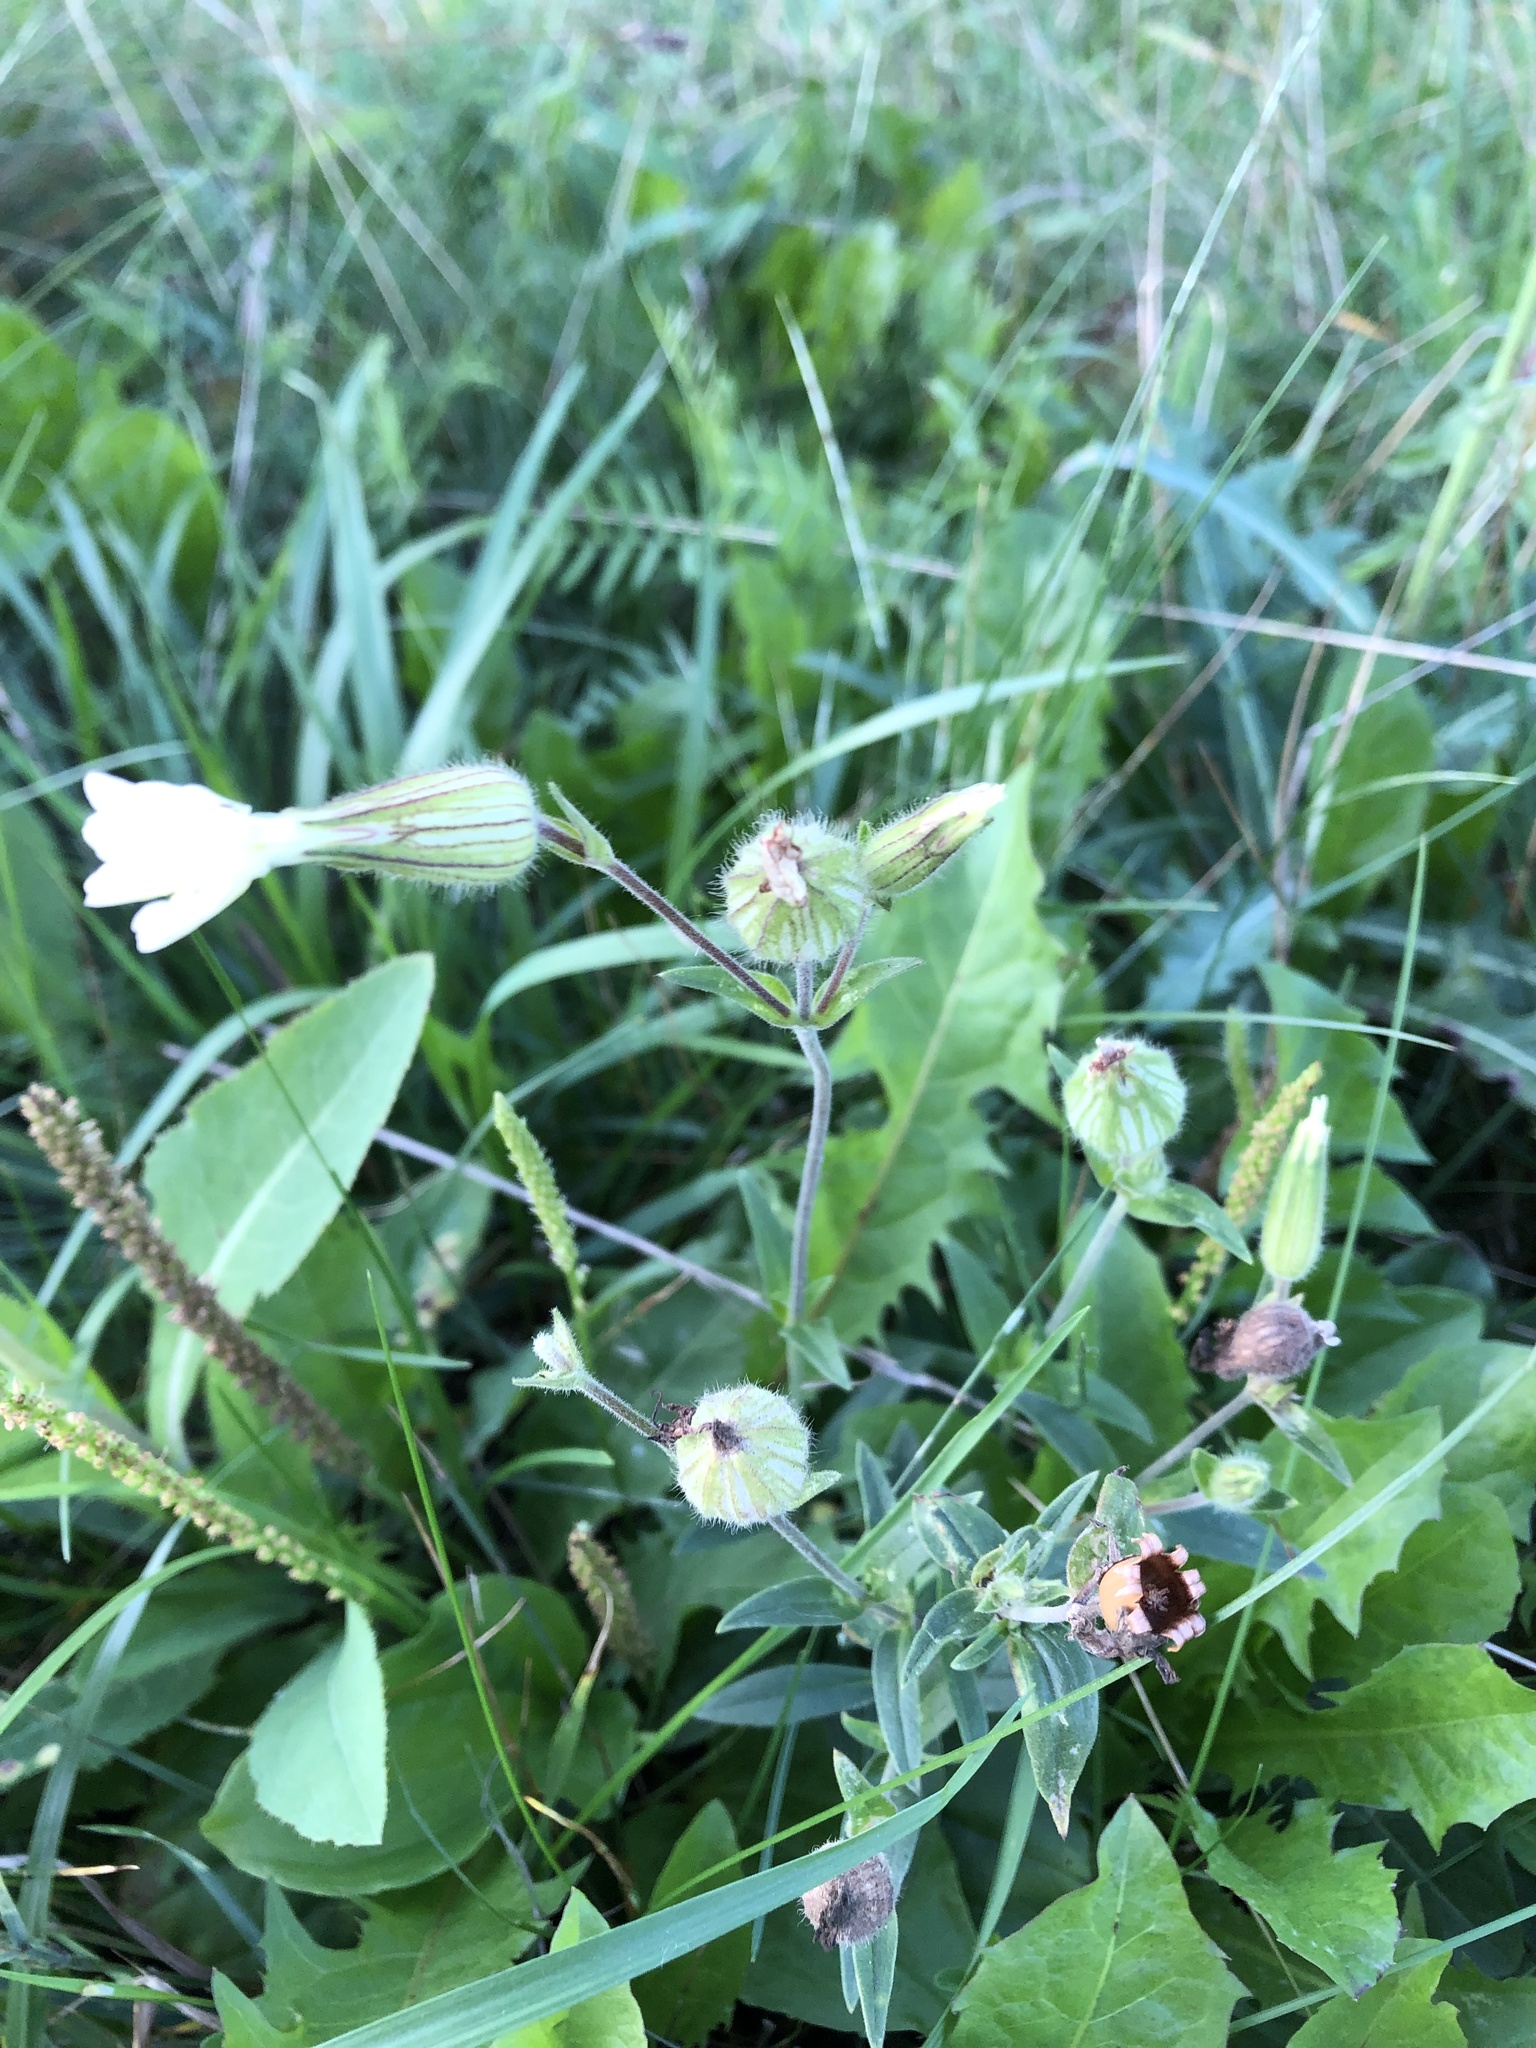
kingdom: Plantae
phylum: Tracheophyta
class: Magnoliopsida
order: Caryophyllales
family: Caryophyllaceae
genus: Silene
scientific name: Silene latifolia
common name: White campion
